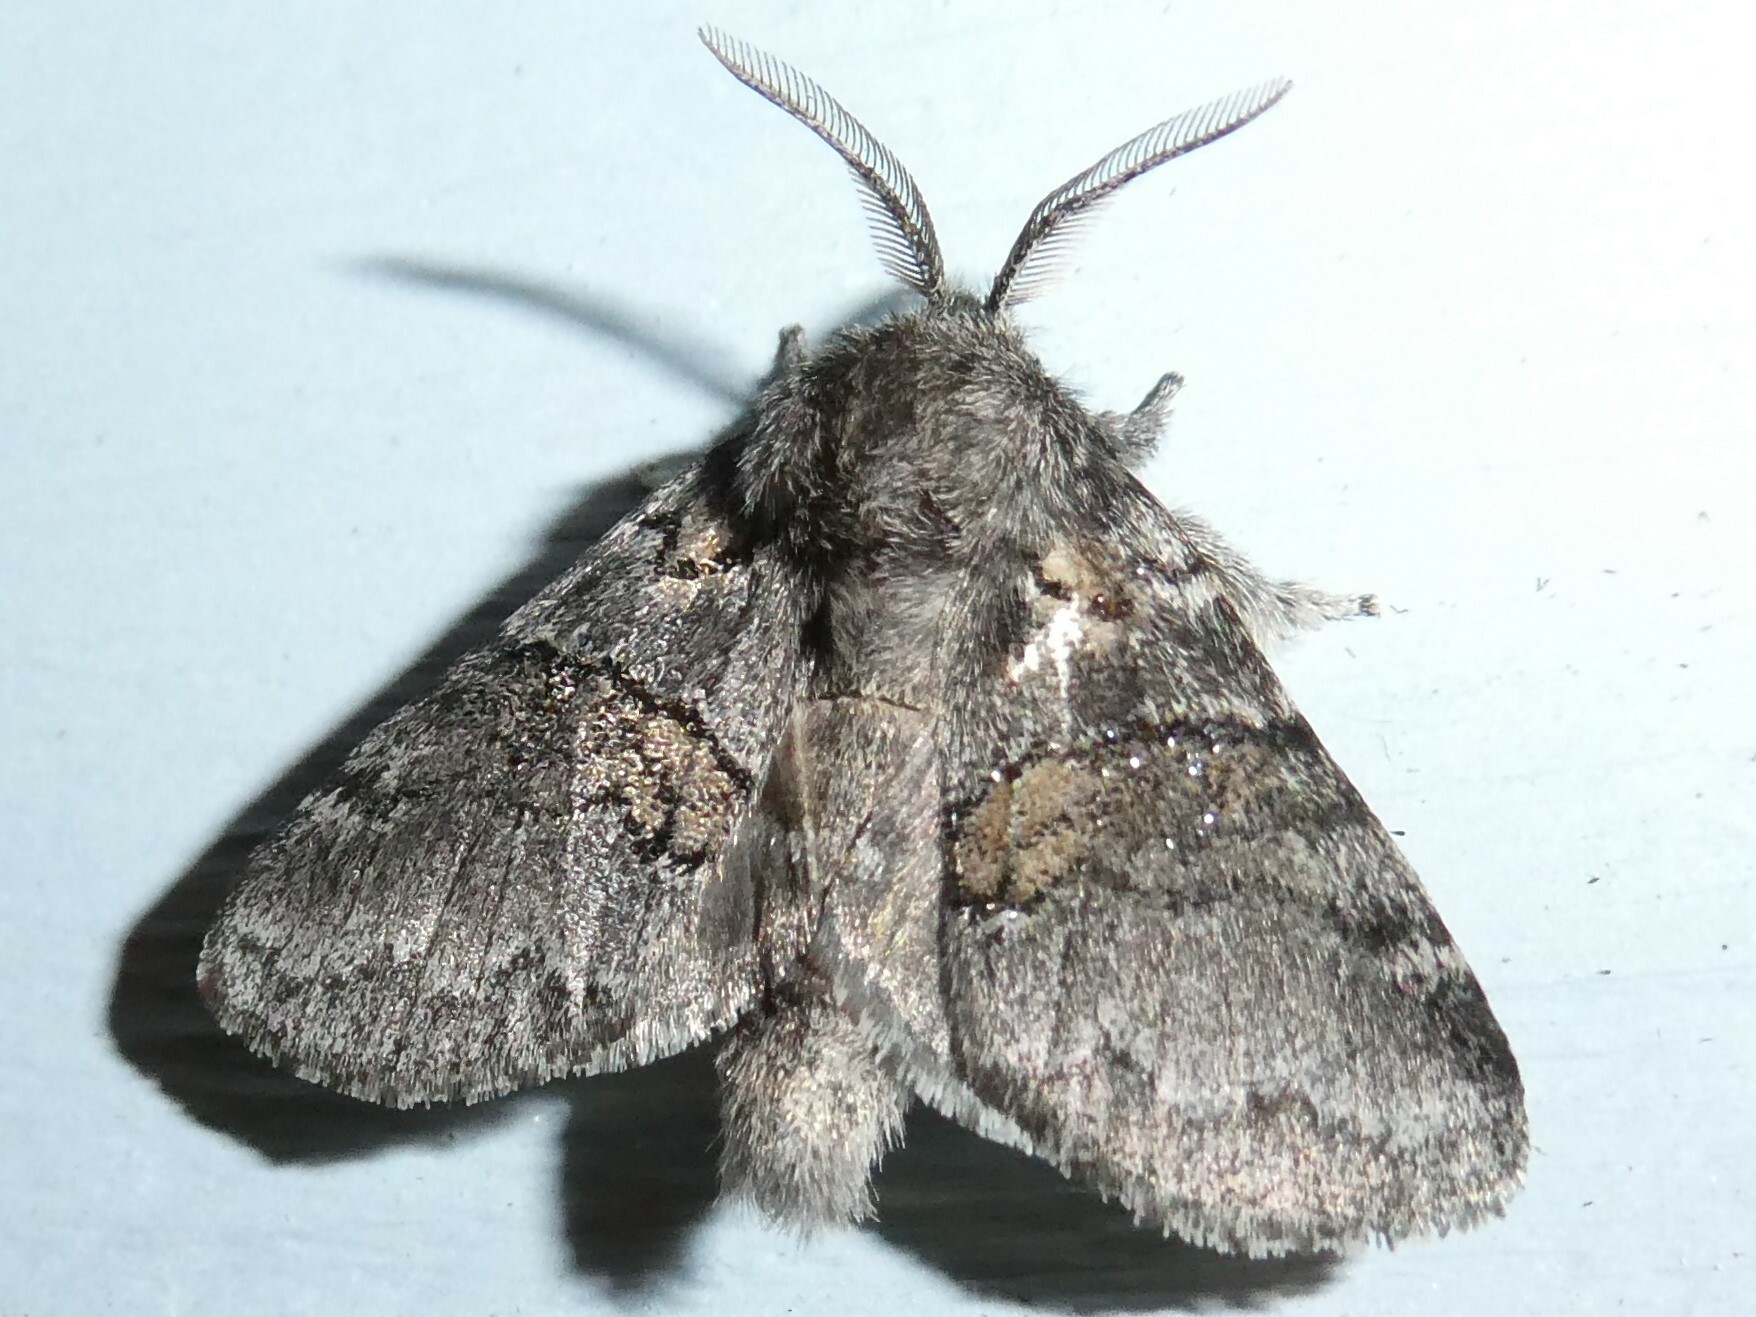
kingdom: Animalia
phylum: Arthropoda
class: Insecta
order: Lepidoptera
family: Notodontidae
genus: Gluphisia
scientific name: Gluphisia septentrionis
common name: Common gluphisia
